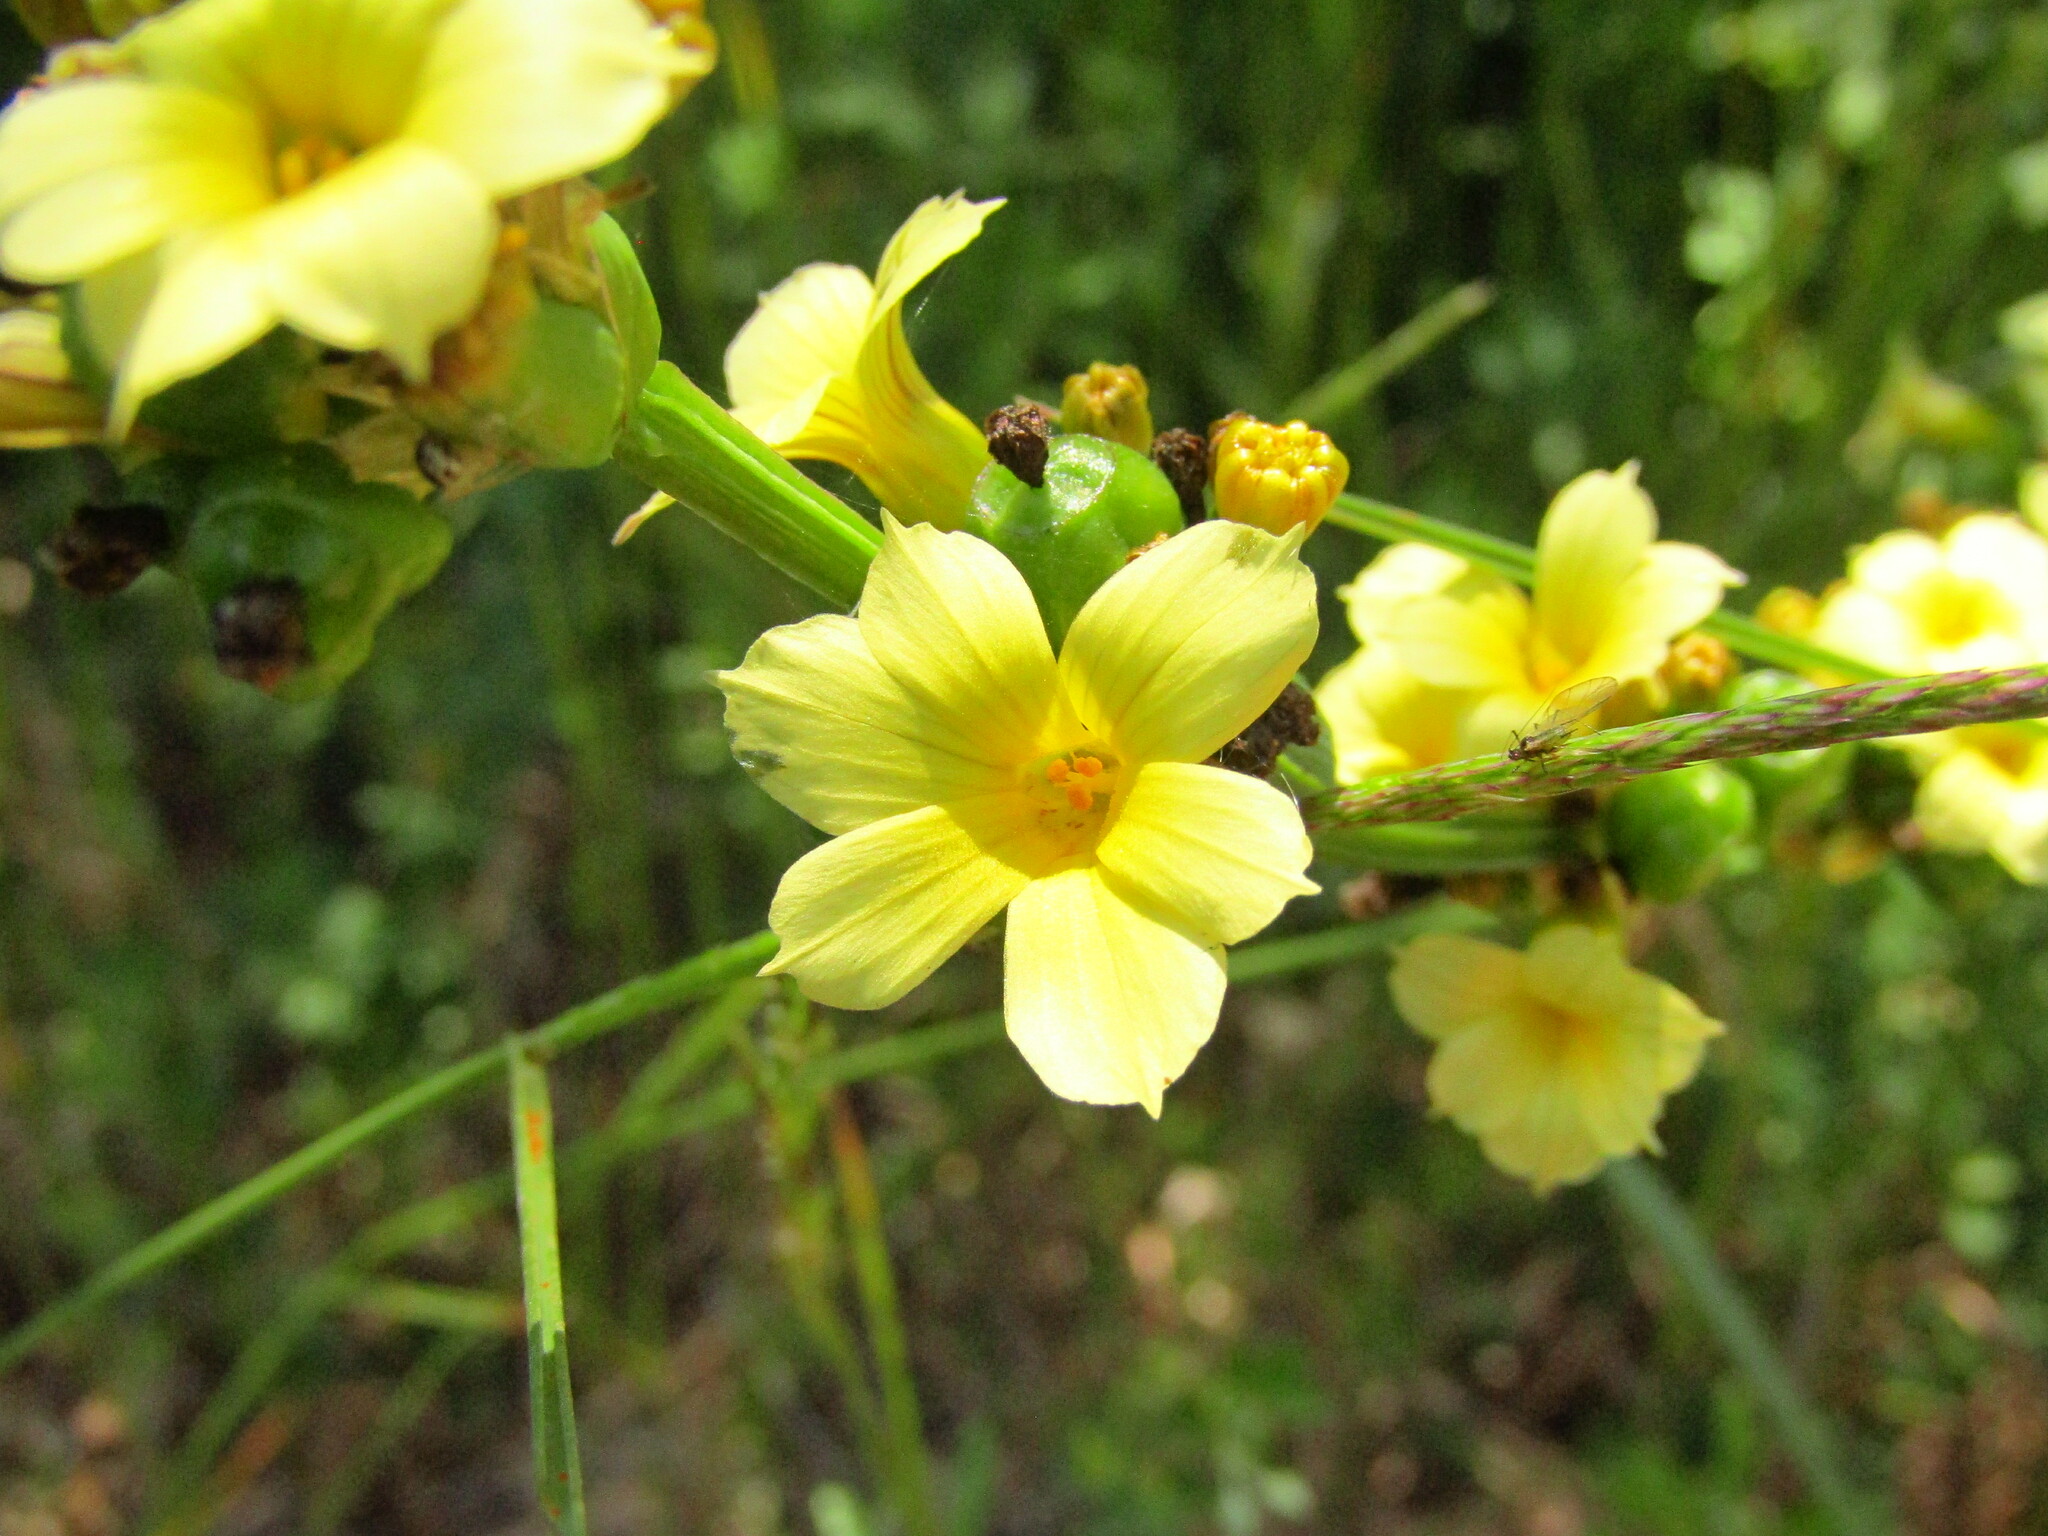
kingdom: Plantae
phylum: Tracheophyta
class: Liliopsida
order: Asparagales
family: Iridaceae
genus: Sisyrinchium
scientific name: Sisyrinchium striatum
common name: Pale yellow-eyed-grass
